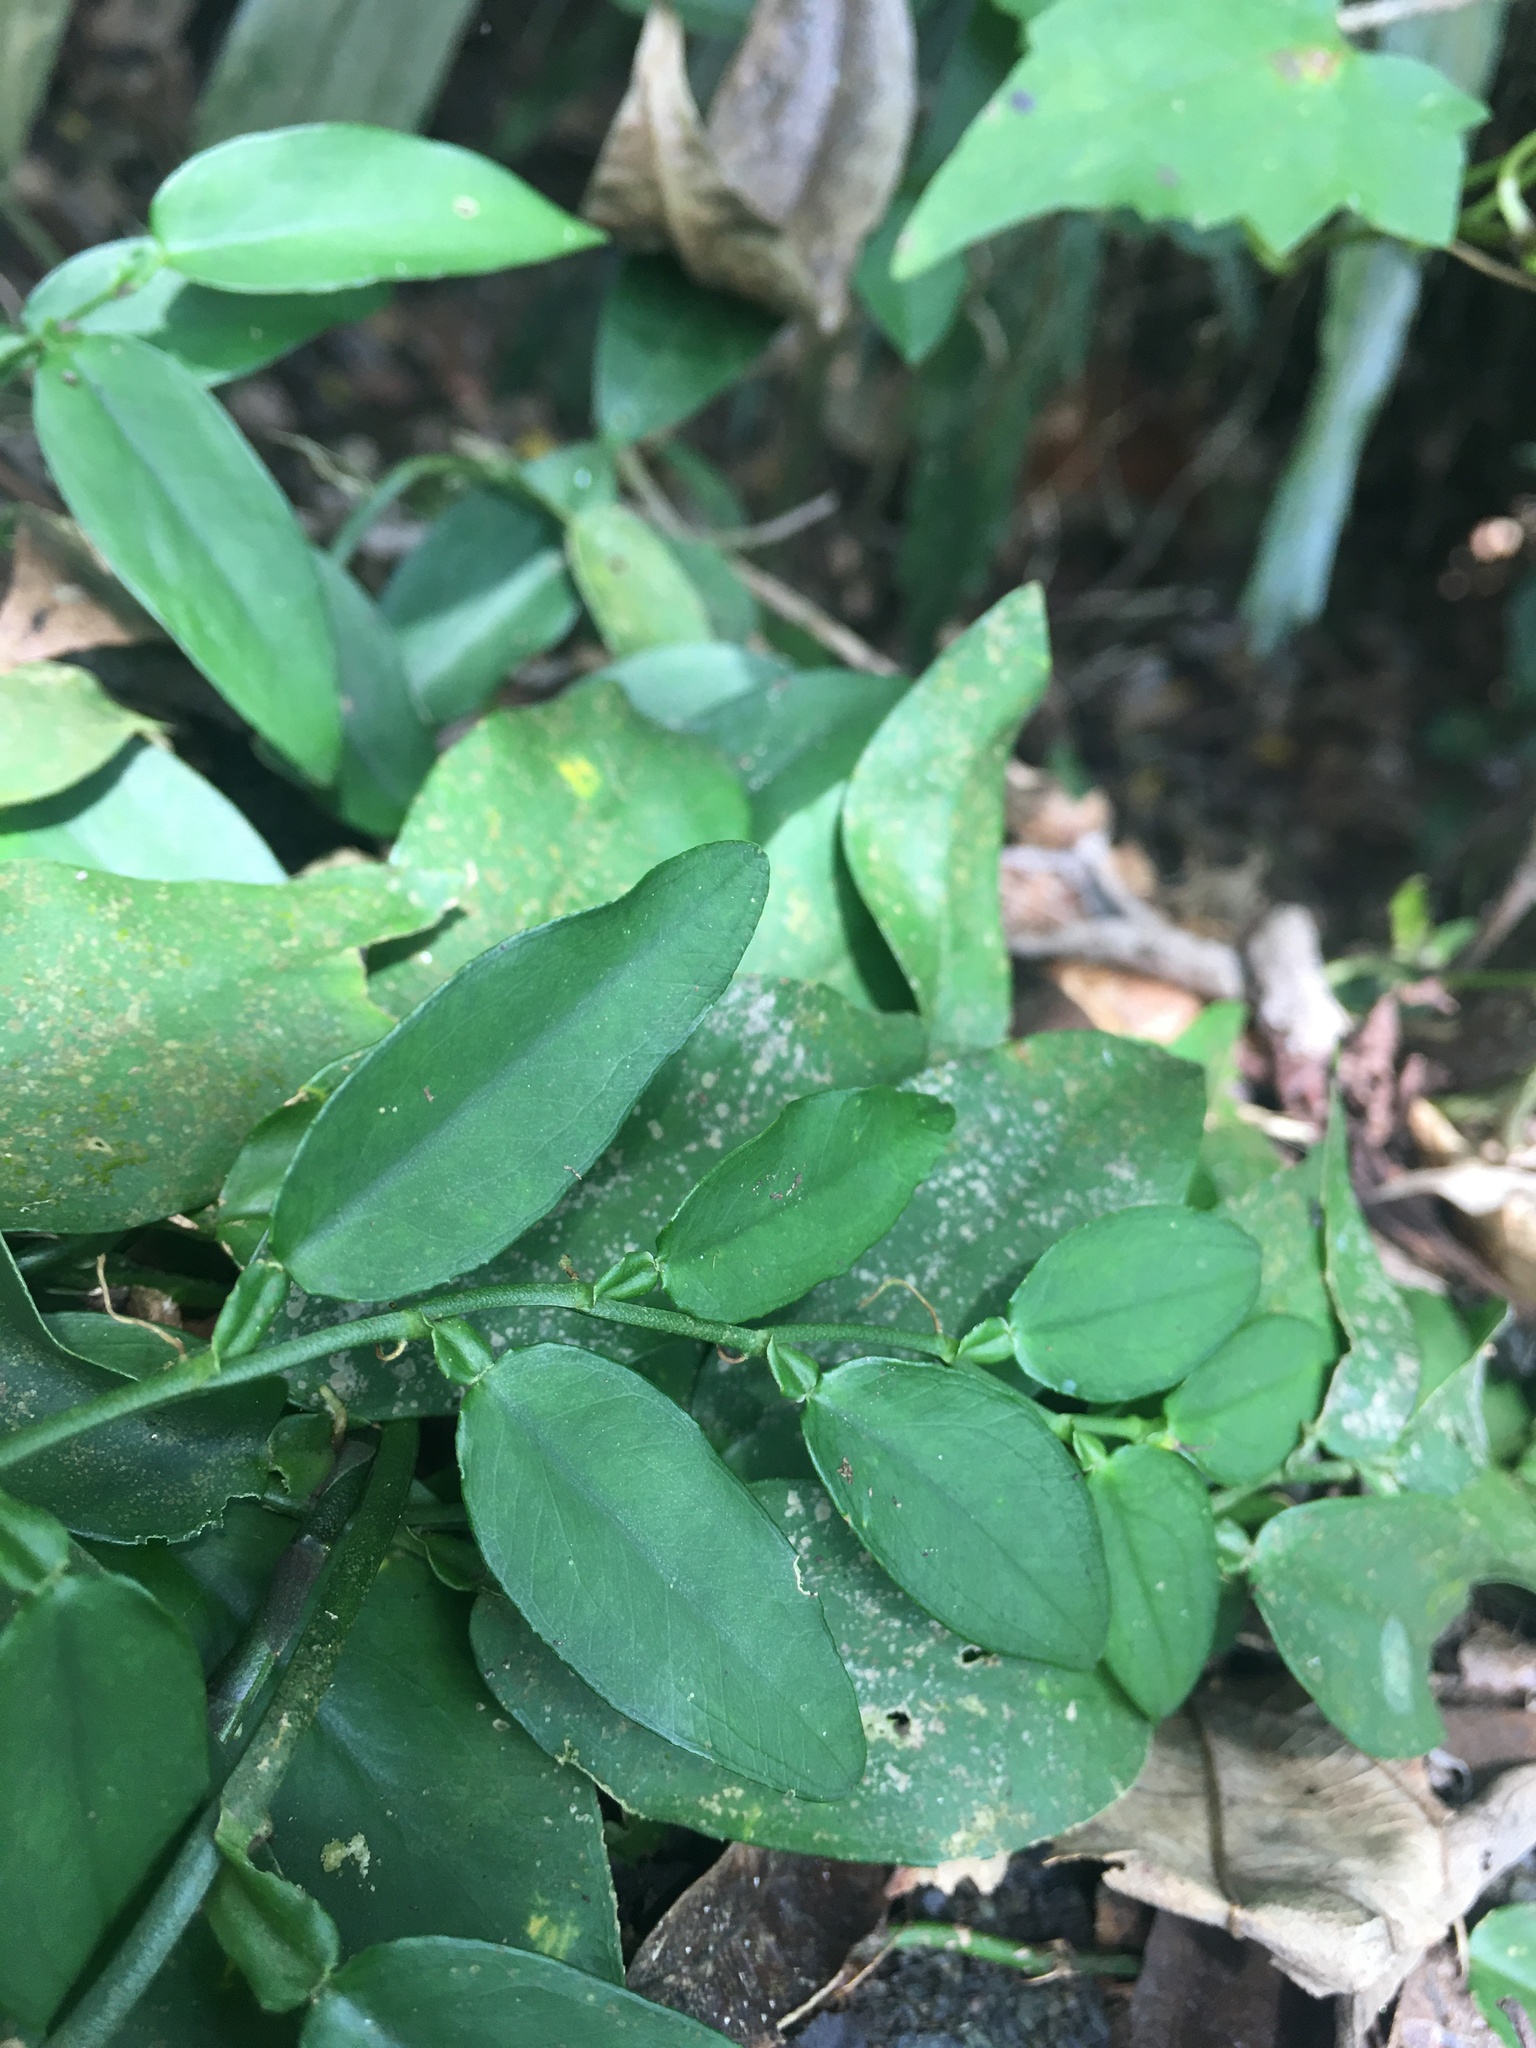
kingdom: Plantae
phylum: Tracheophyta
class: Liliopsida
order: Alismatales
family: Araceae
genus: Pothos
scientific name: Pothos chinensis
